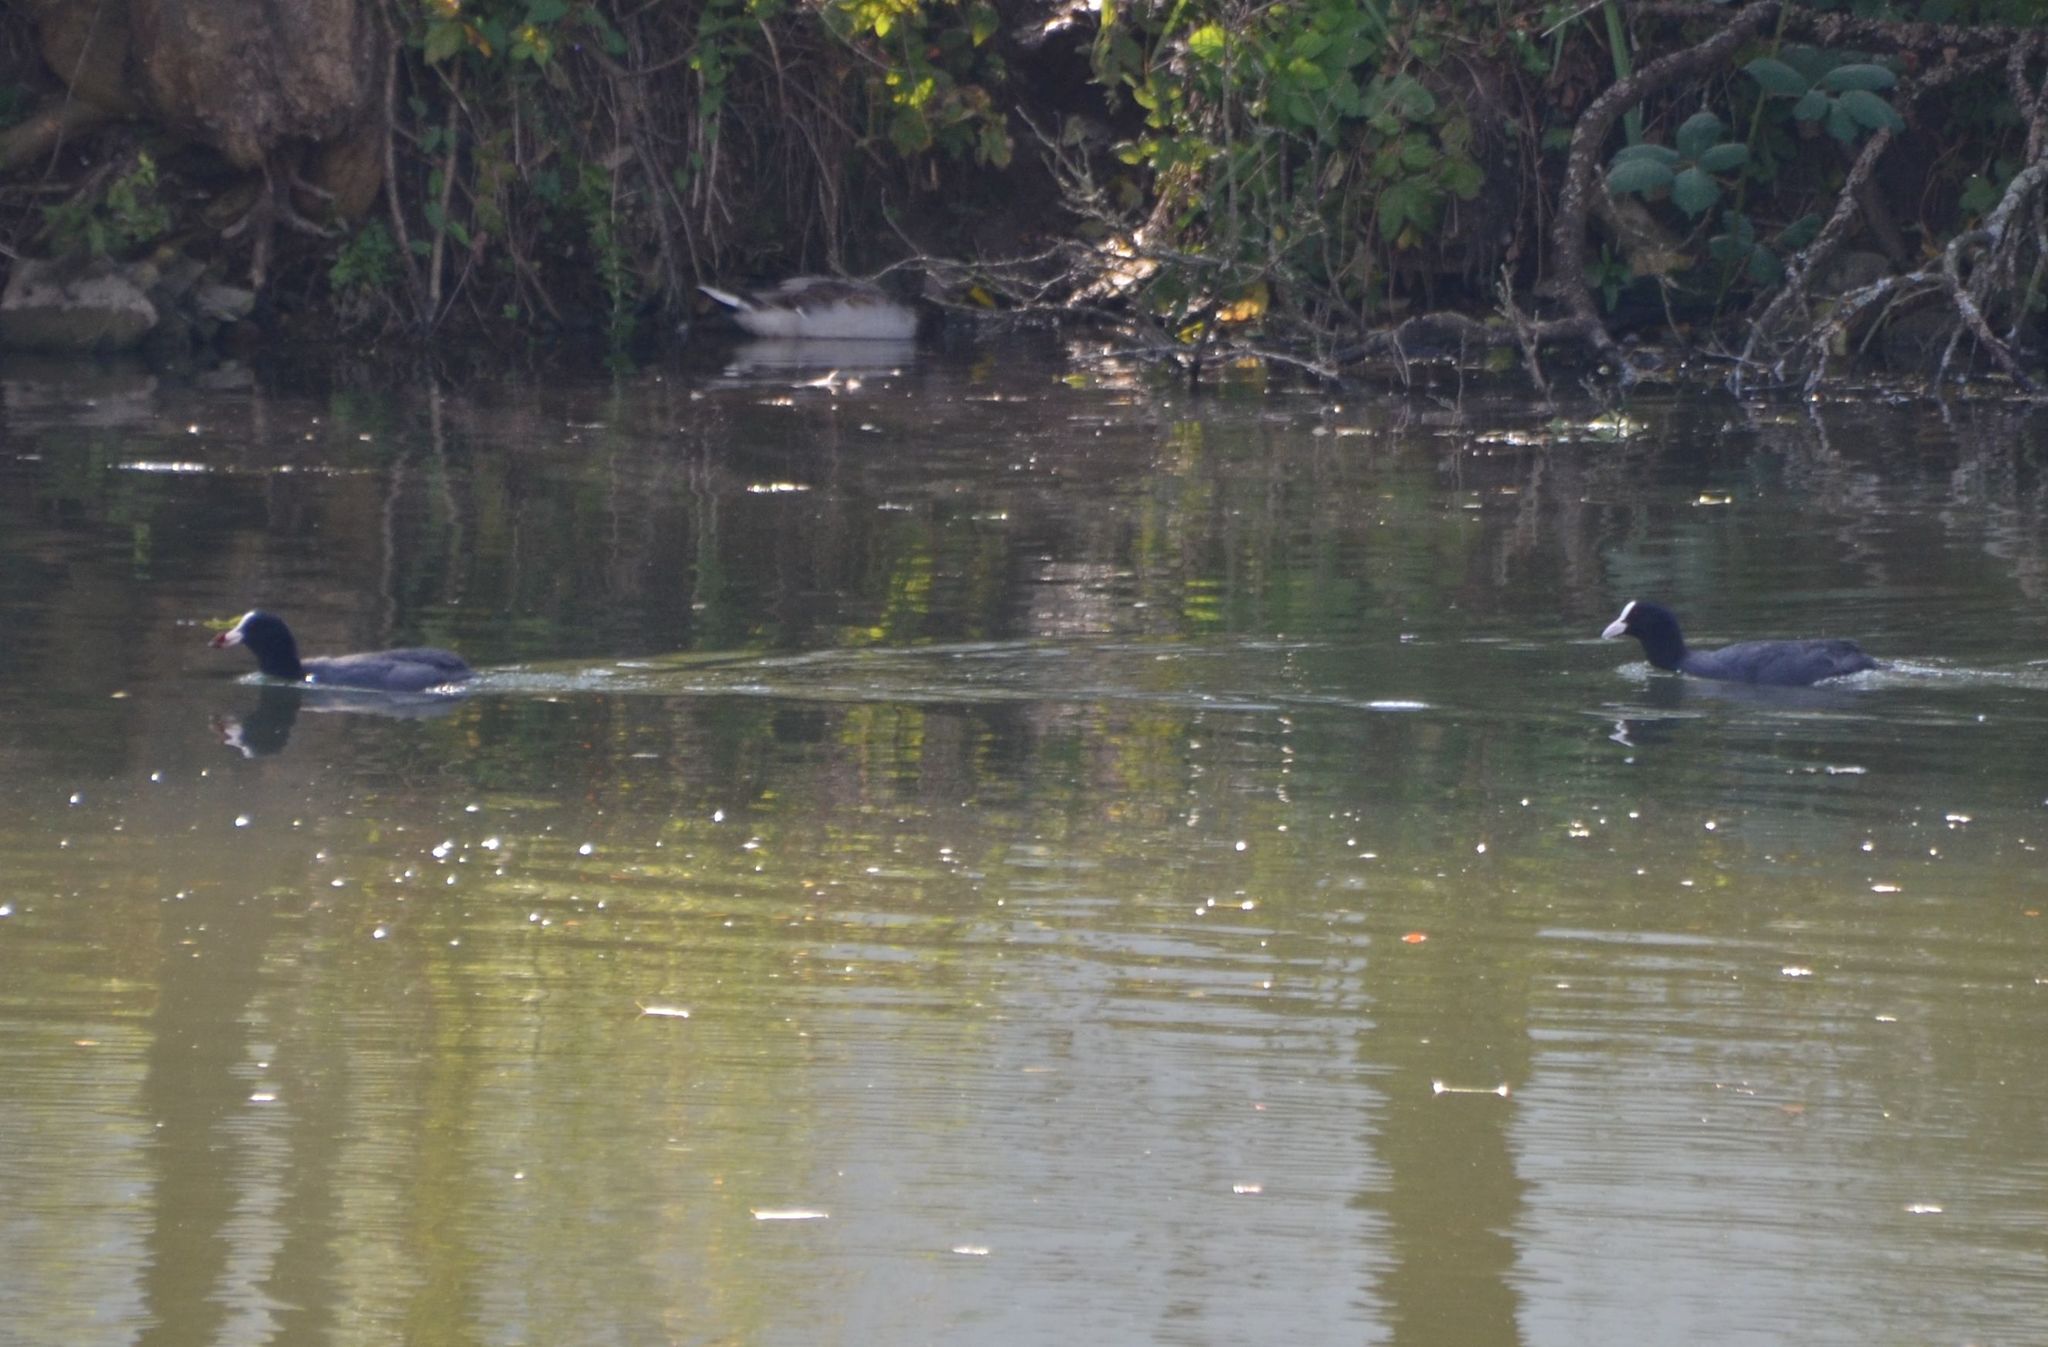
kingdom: Animalia
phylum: Chordata
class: Aves
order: Gruiformes
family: Rallidae
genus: Fulica
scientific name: Fulica atra
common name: Eurasian coot
